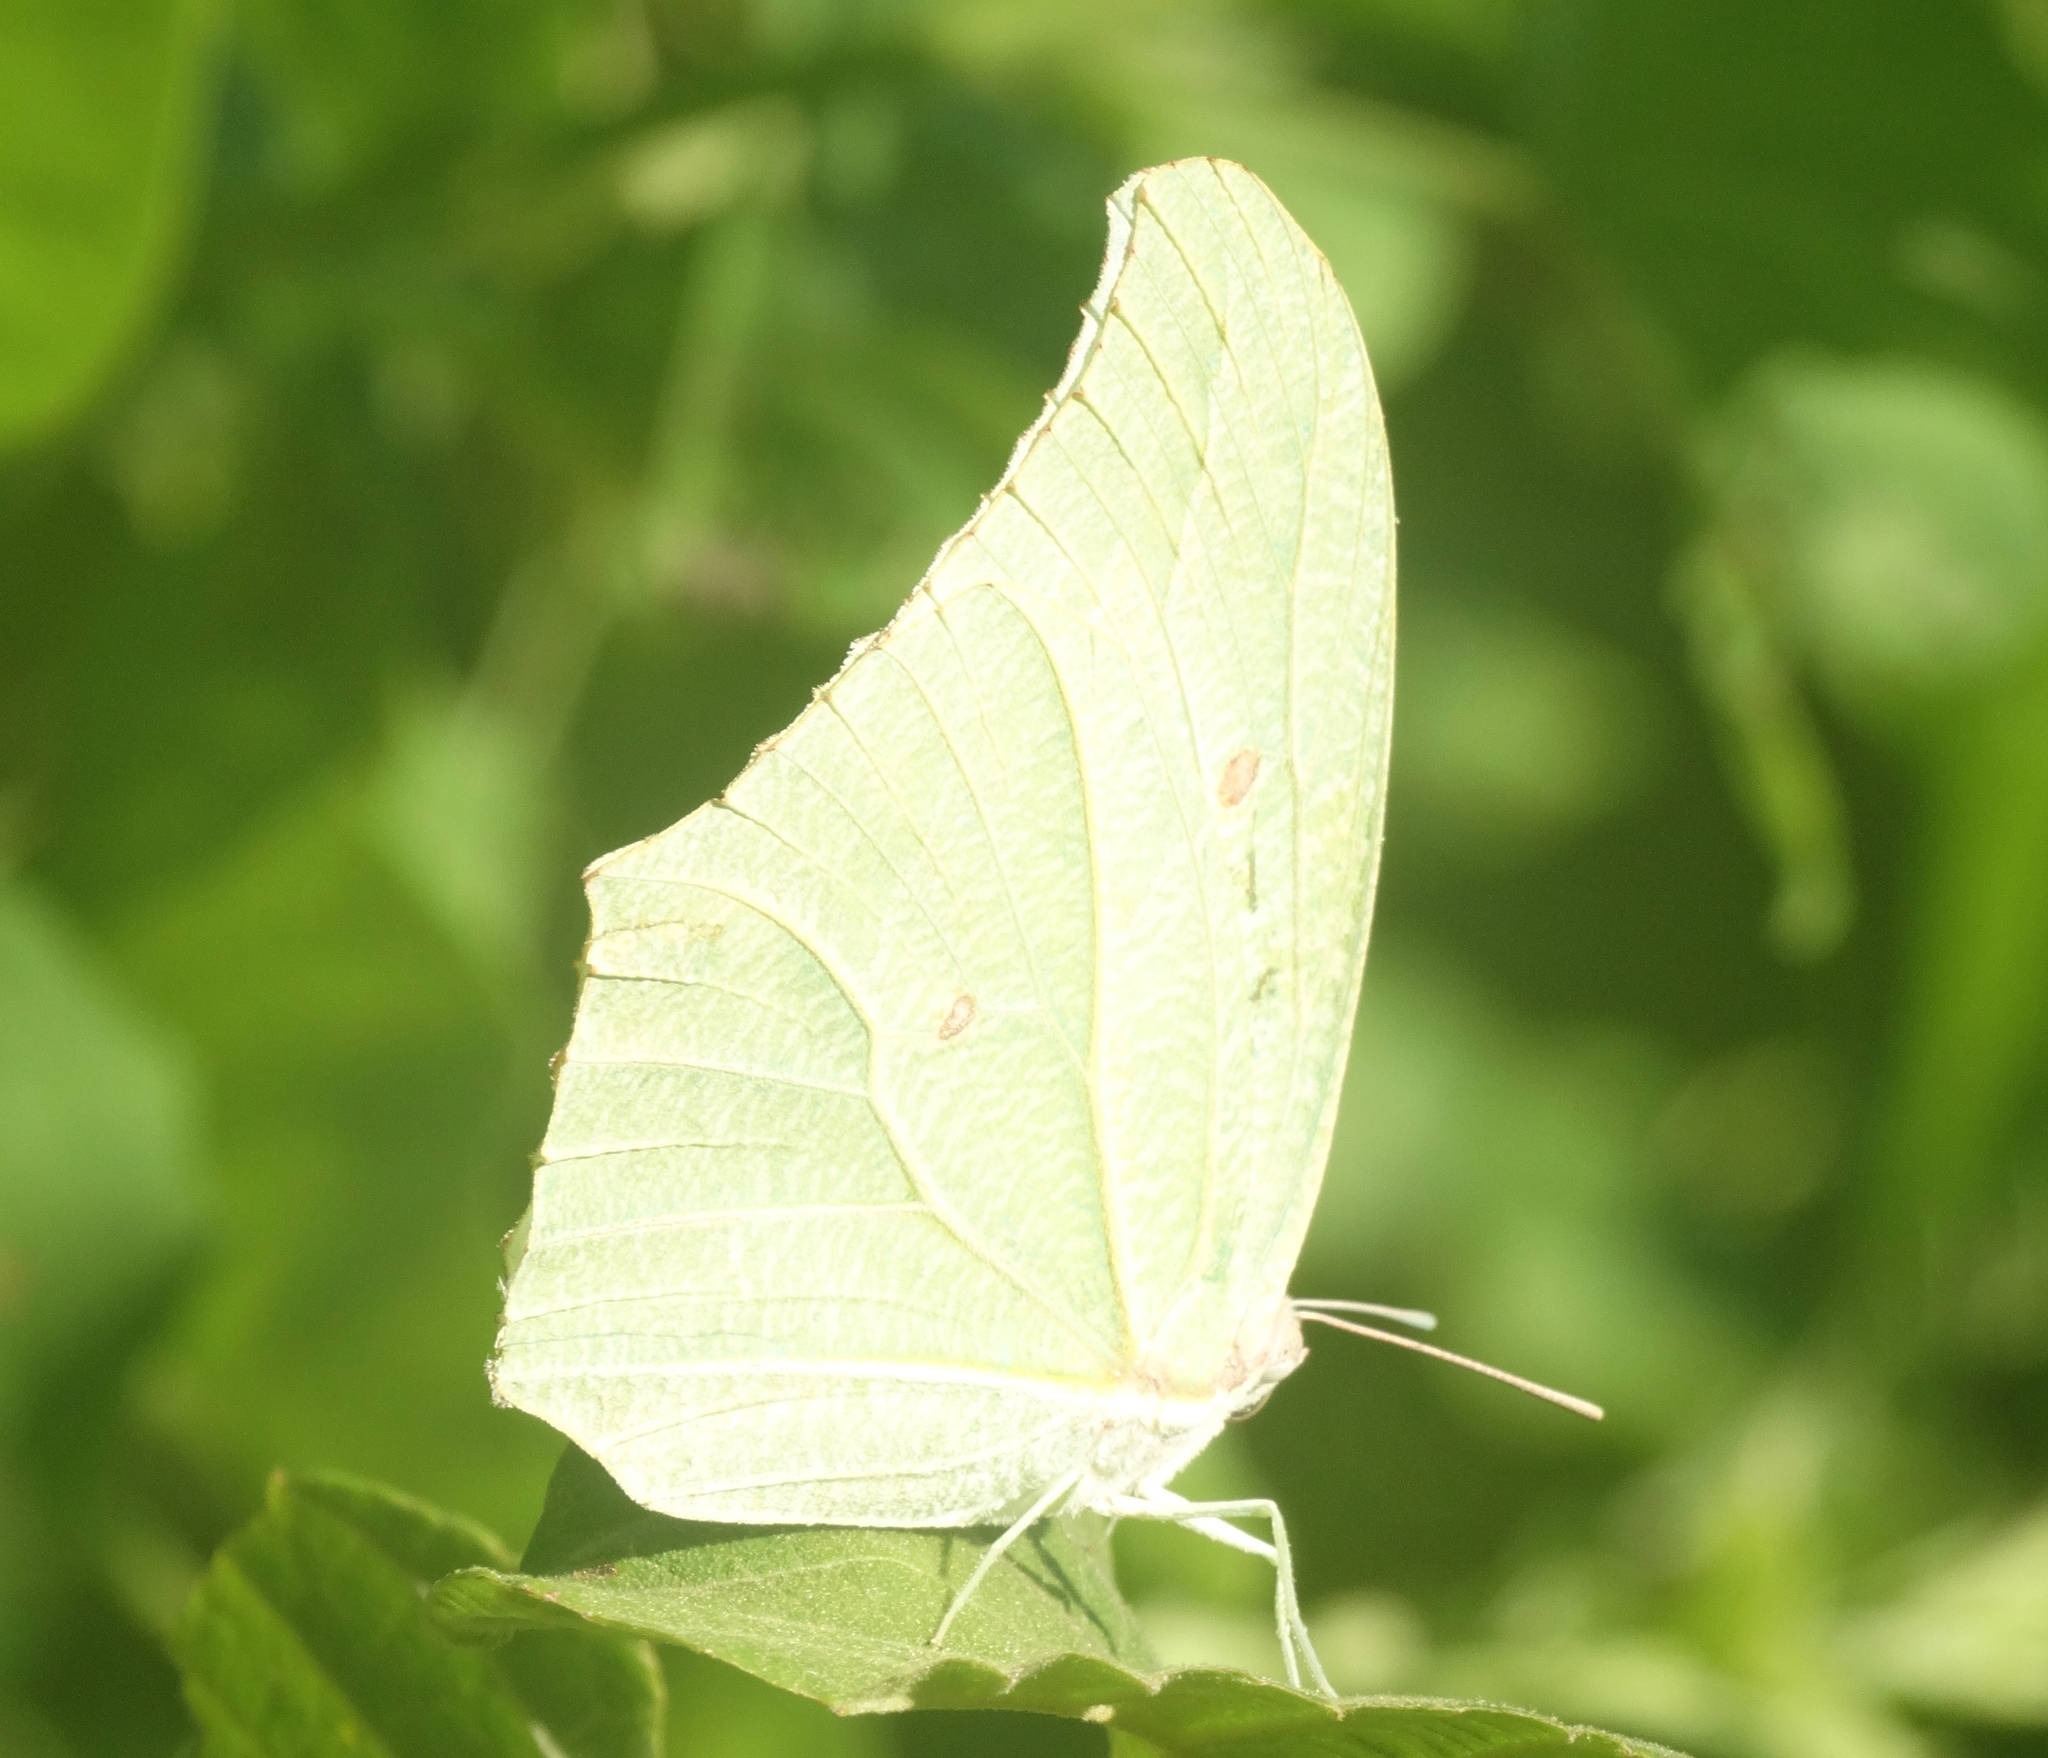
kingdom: Animalia
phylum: Arthropoda
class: Insecta
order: Lepidoptera
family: Pieridae
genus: Anteos
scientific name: Anteos clorinde
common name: White angled sulphur
